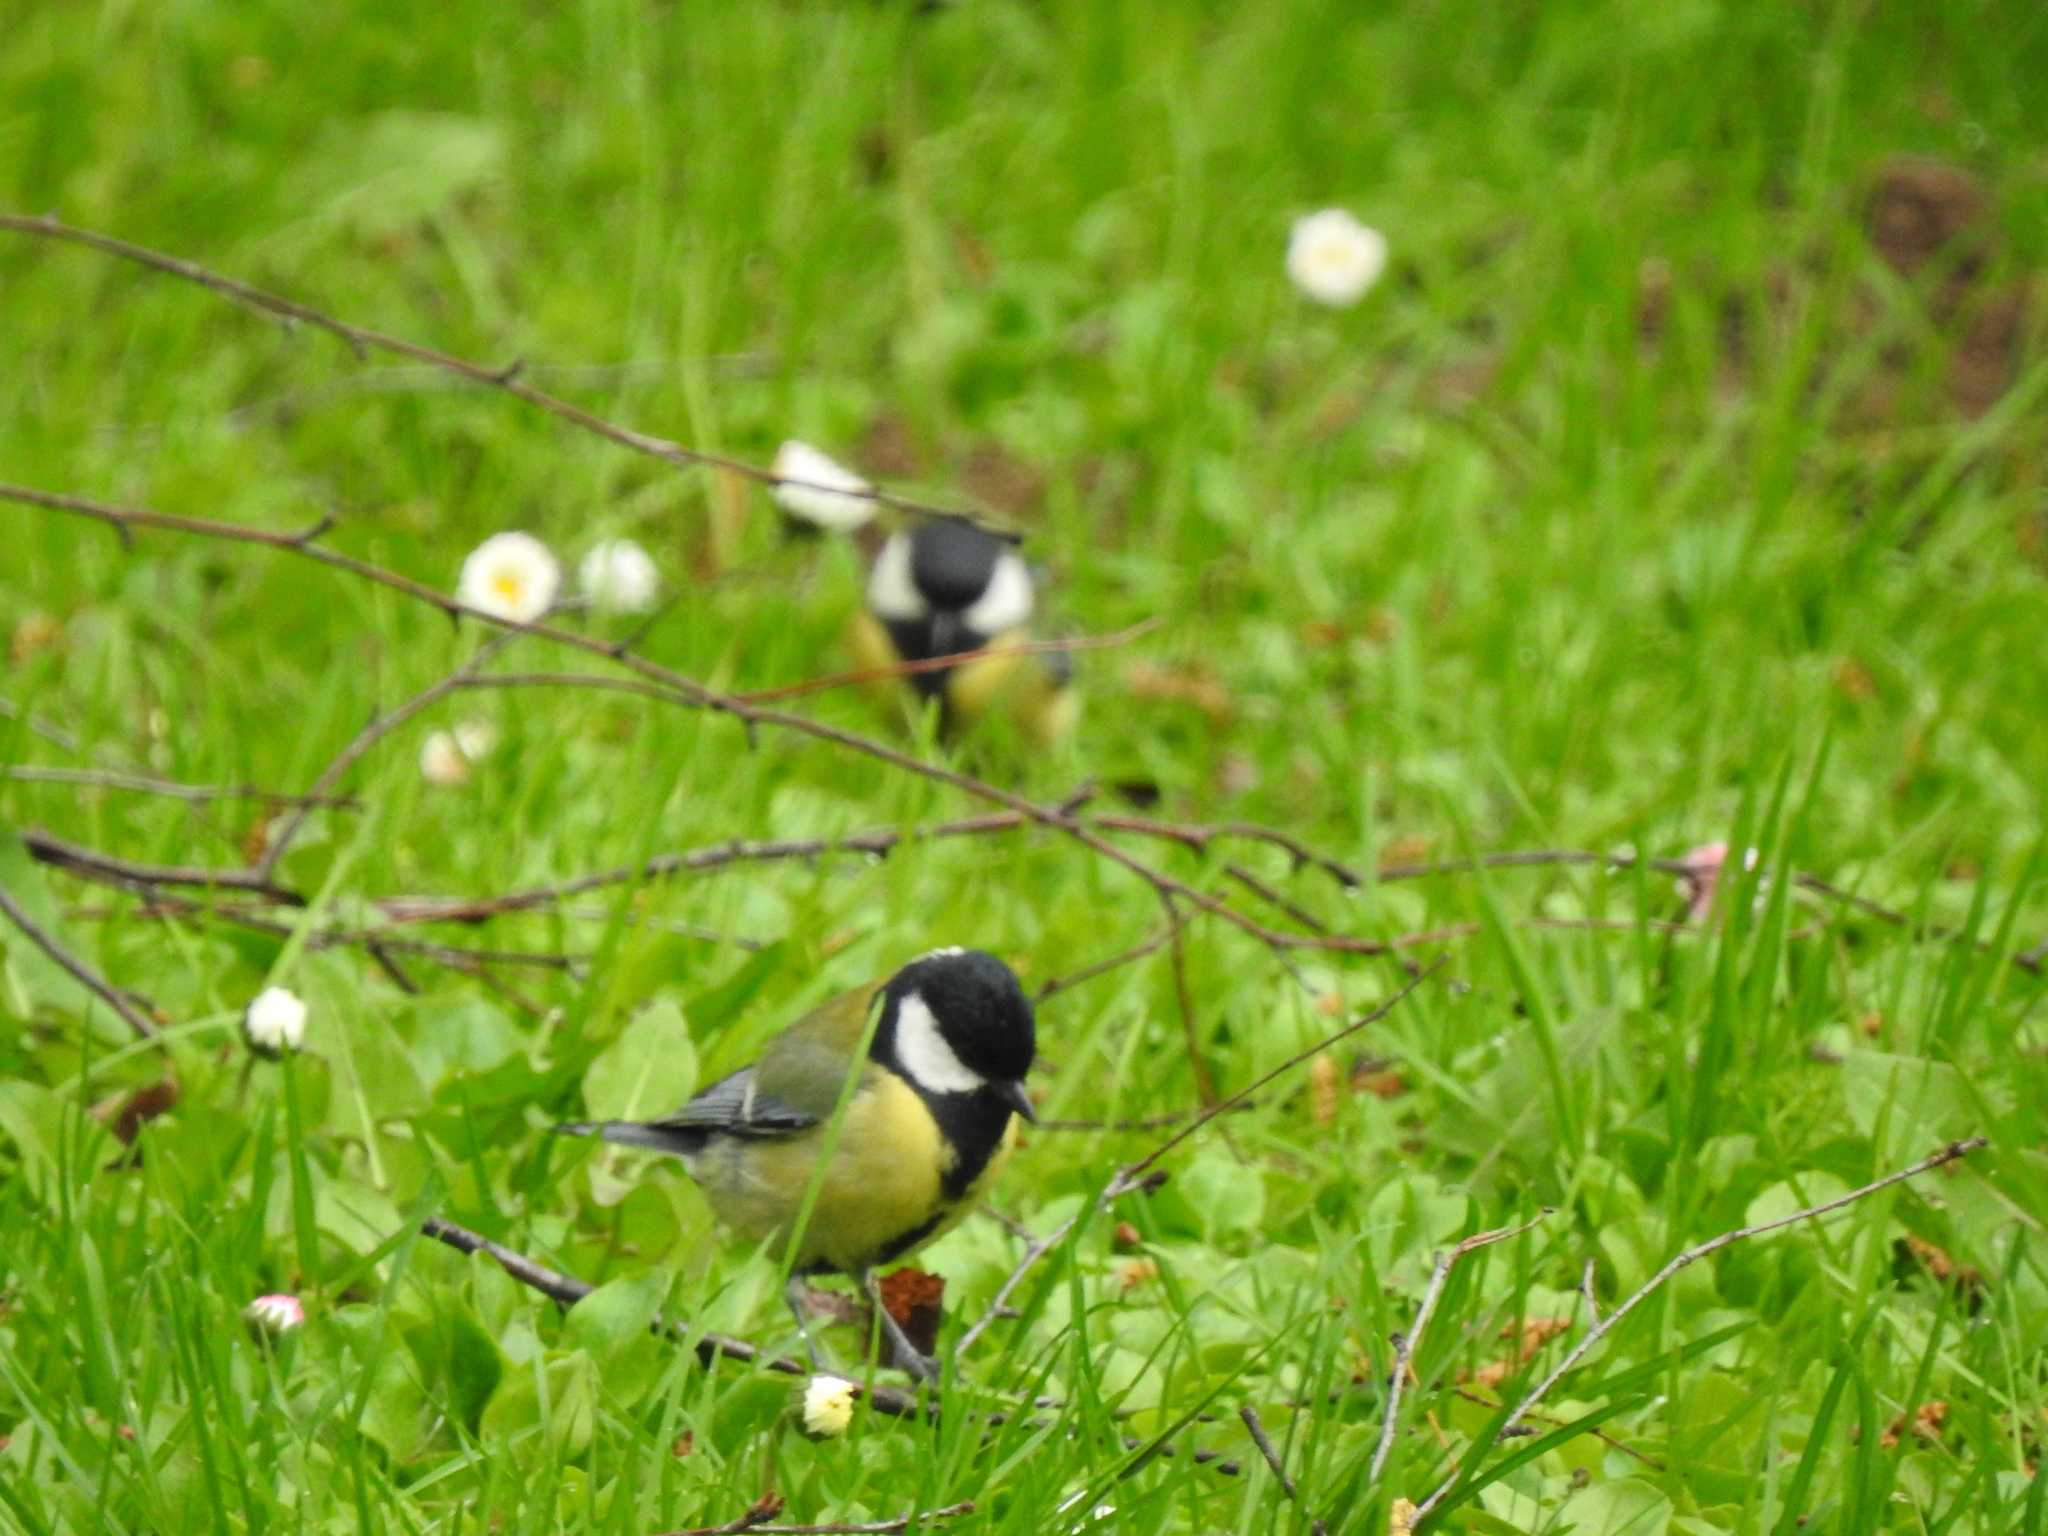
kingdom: Animalia
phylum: Chordata
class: Aves
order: Passeriformes
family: Paridae
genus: Parus
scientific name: Parus major
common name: Great tit
